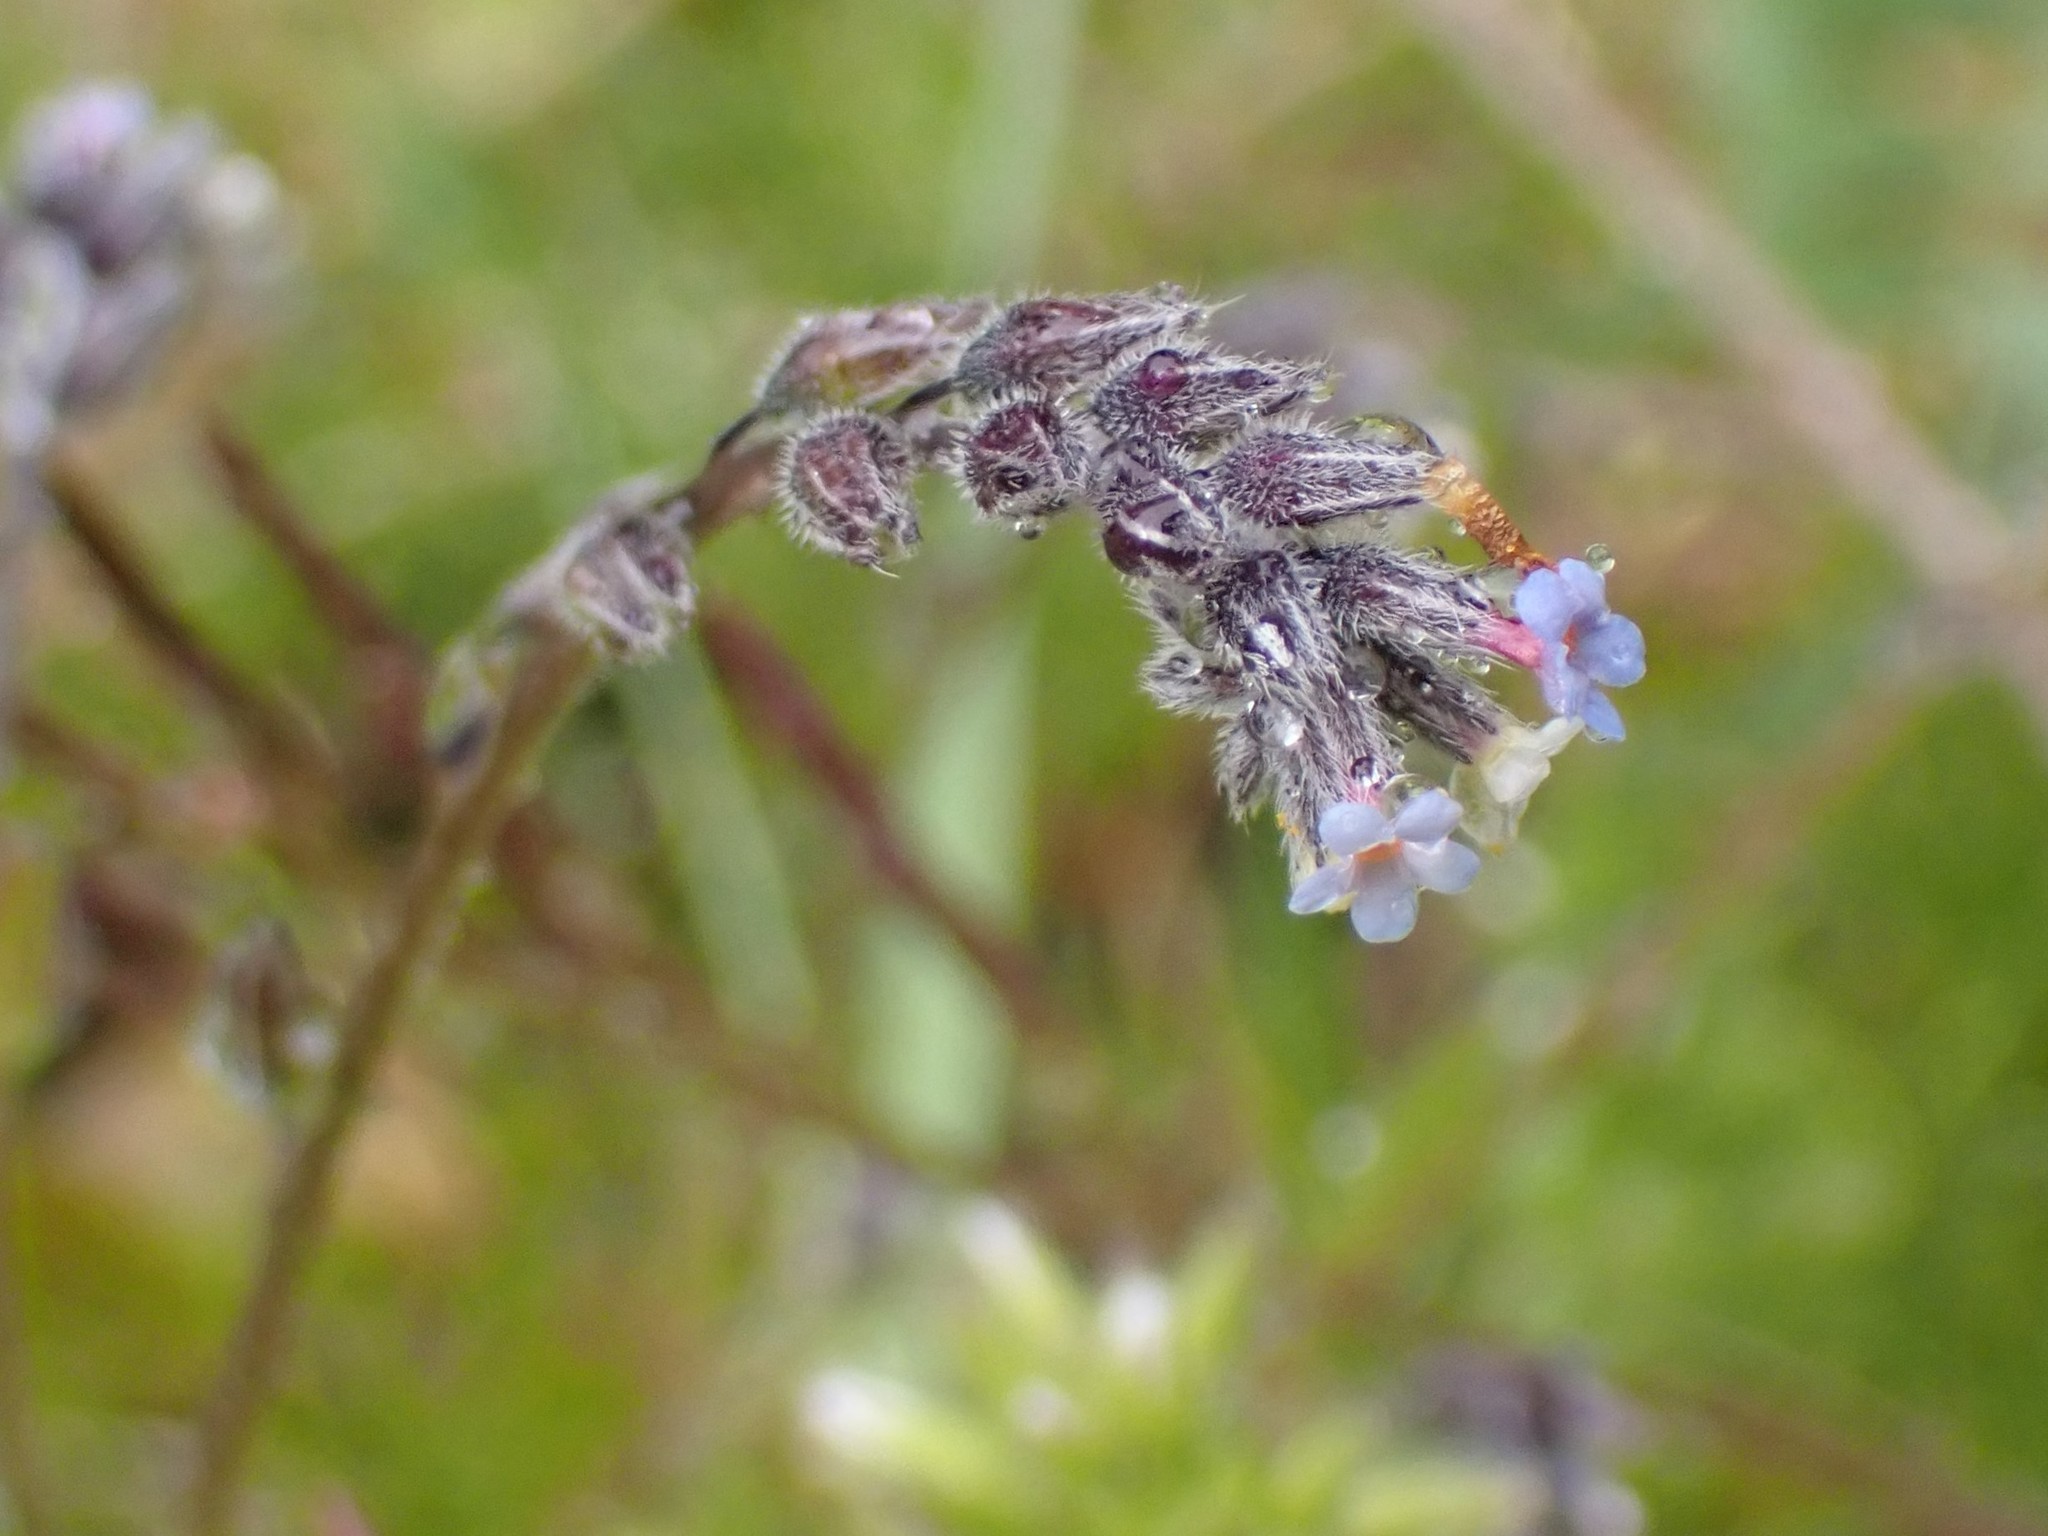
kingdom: Plantae
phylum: Tracheophyta
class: Magnoliopsida
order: Boraginales
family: Boraginaceae
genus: Myosotis
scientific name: Myosotis discolor
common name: Changing forget-me-not
